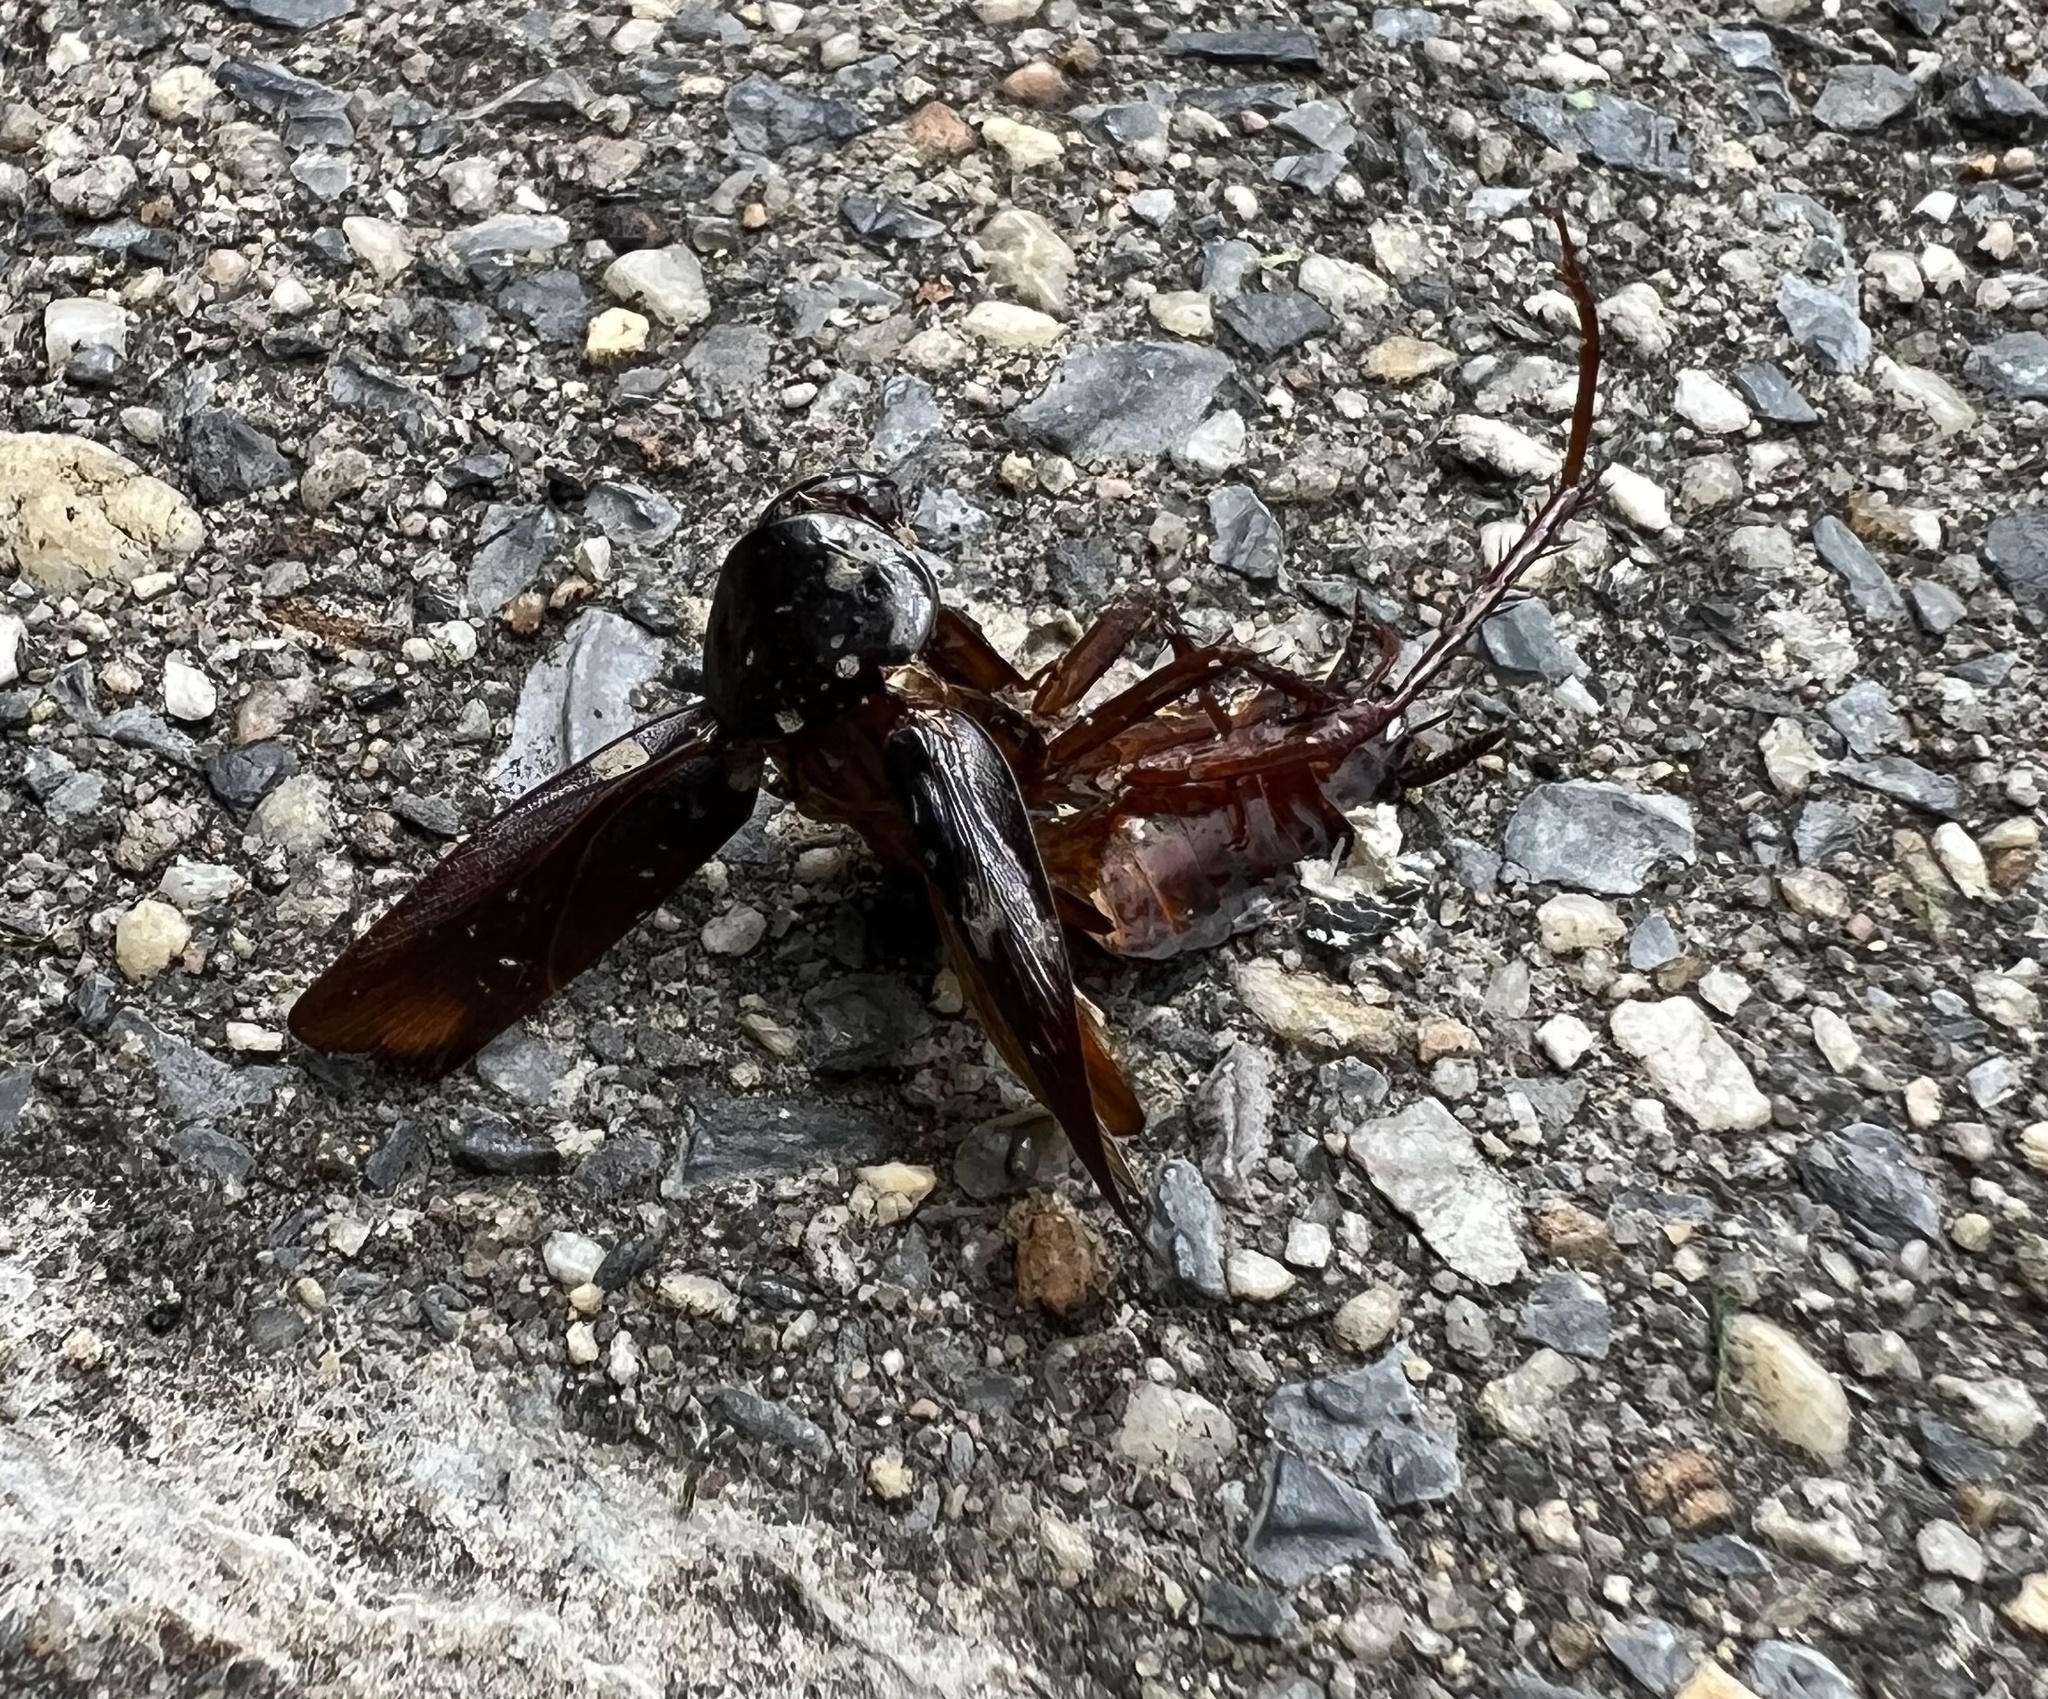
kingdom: Animalia
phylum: Arthropoda
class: Insecta
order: Blattodea
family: Blattidae
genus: Blatta
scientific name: Blatta orientalis
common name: Oriental cockroach
